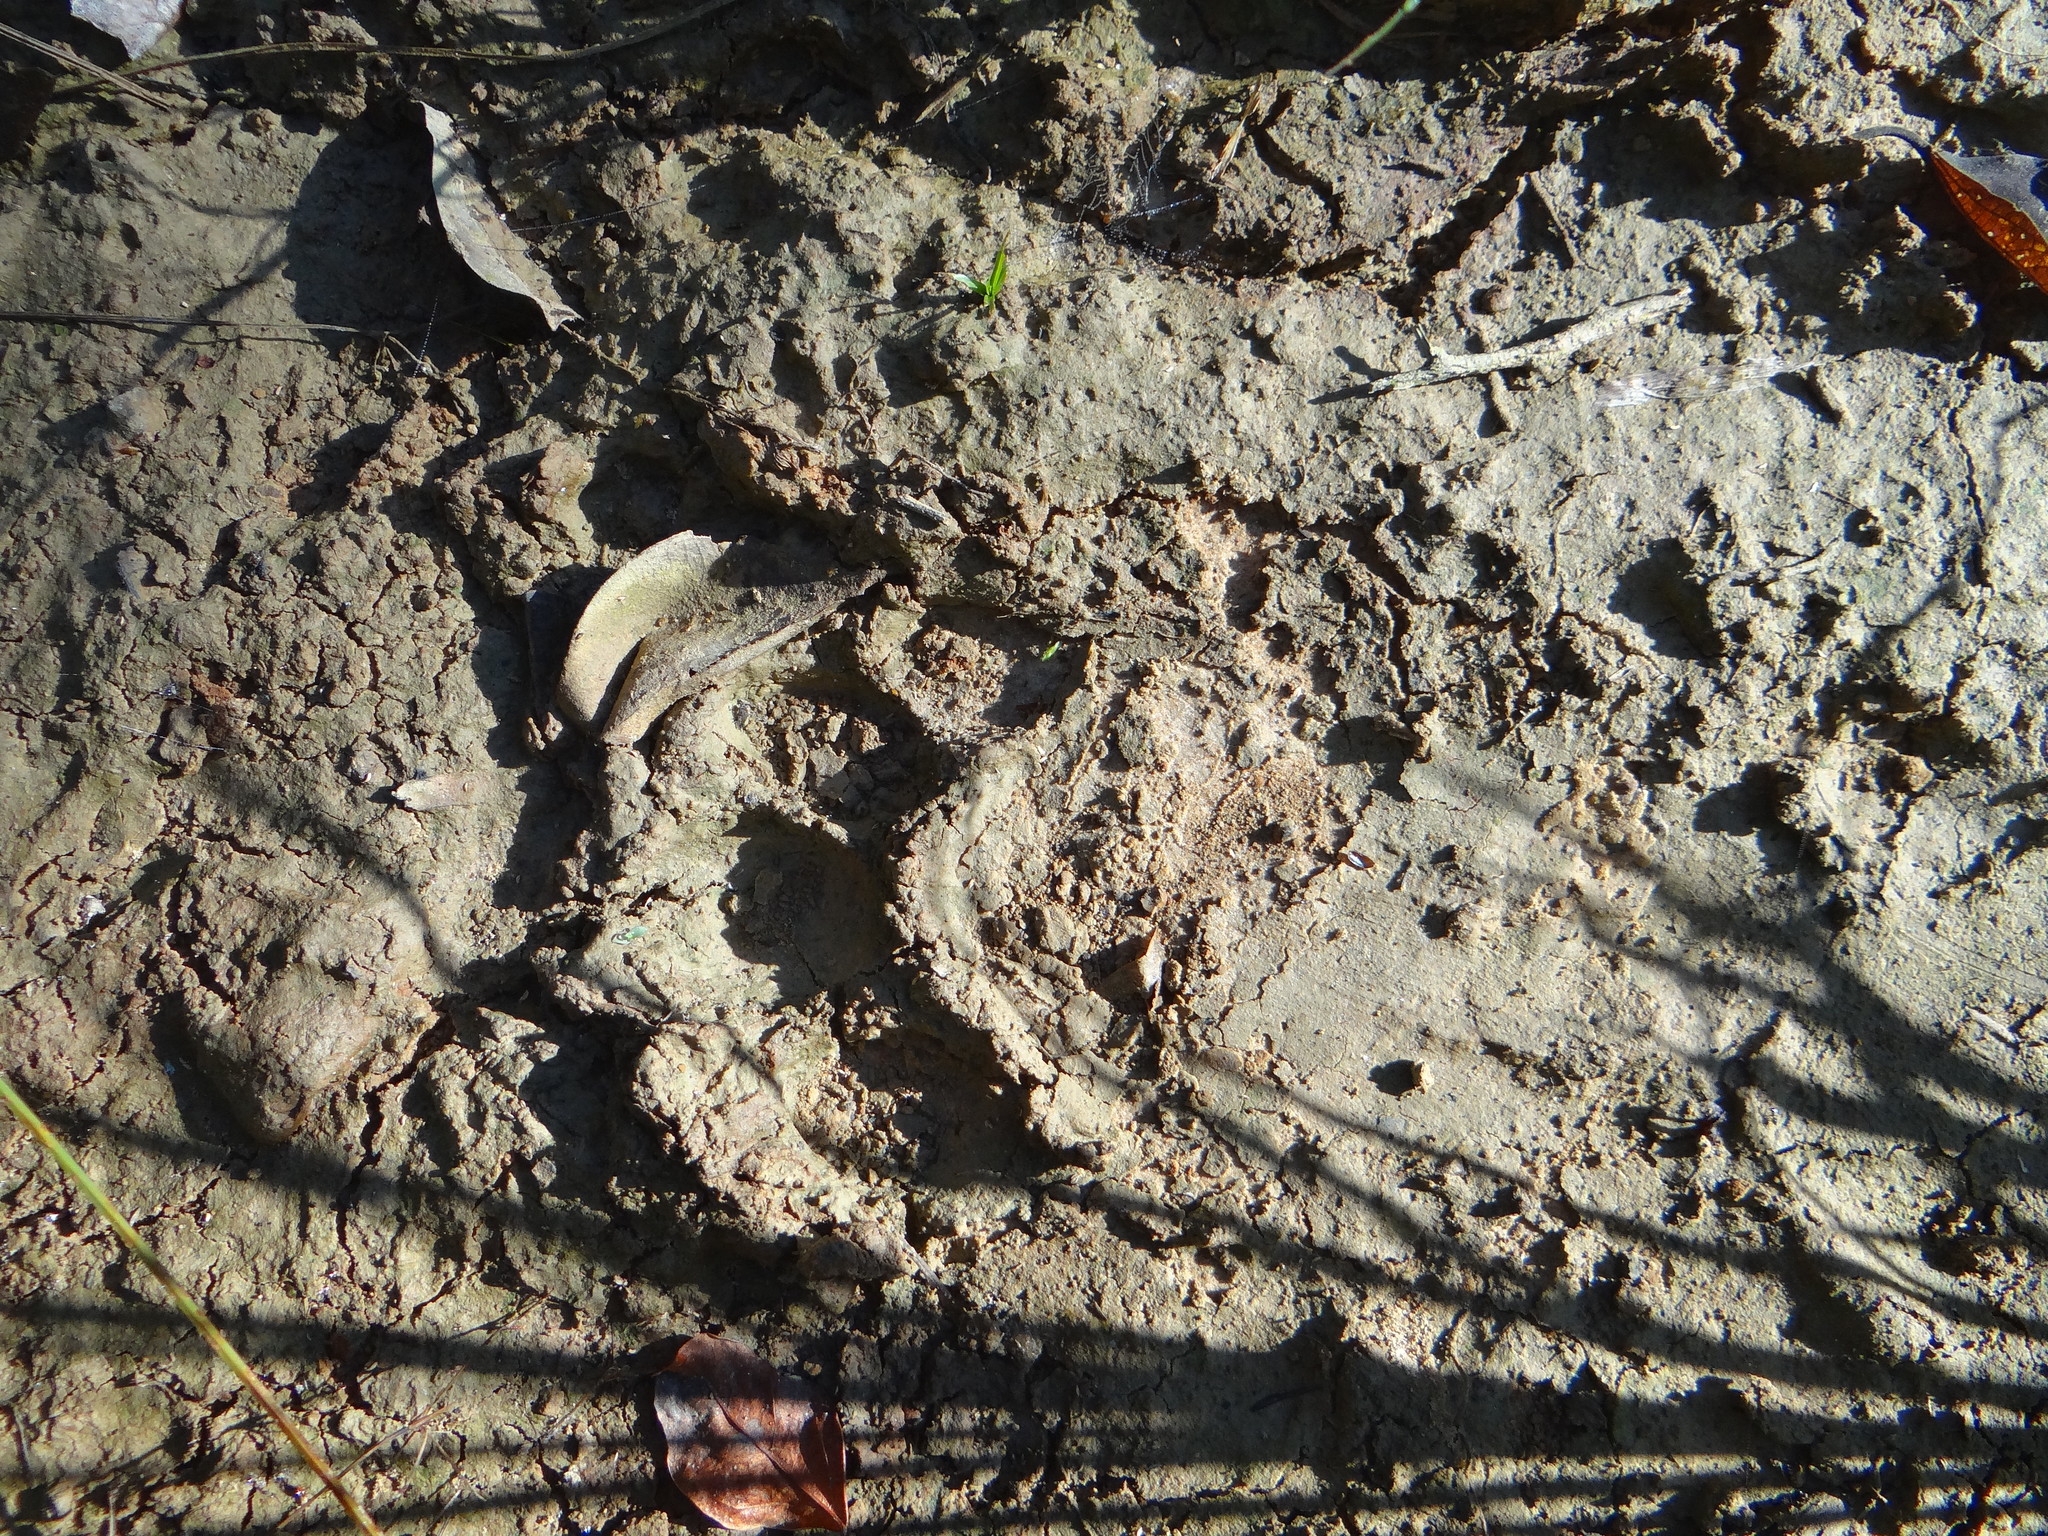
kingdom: Animalia
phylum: Chordata
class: Mammalia
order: Carnivora
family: Felidae
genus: Panthera
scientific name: Panthera onca
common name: Jaguar
